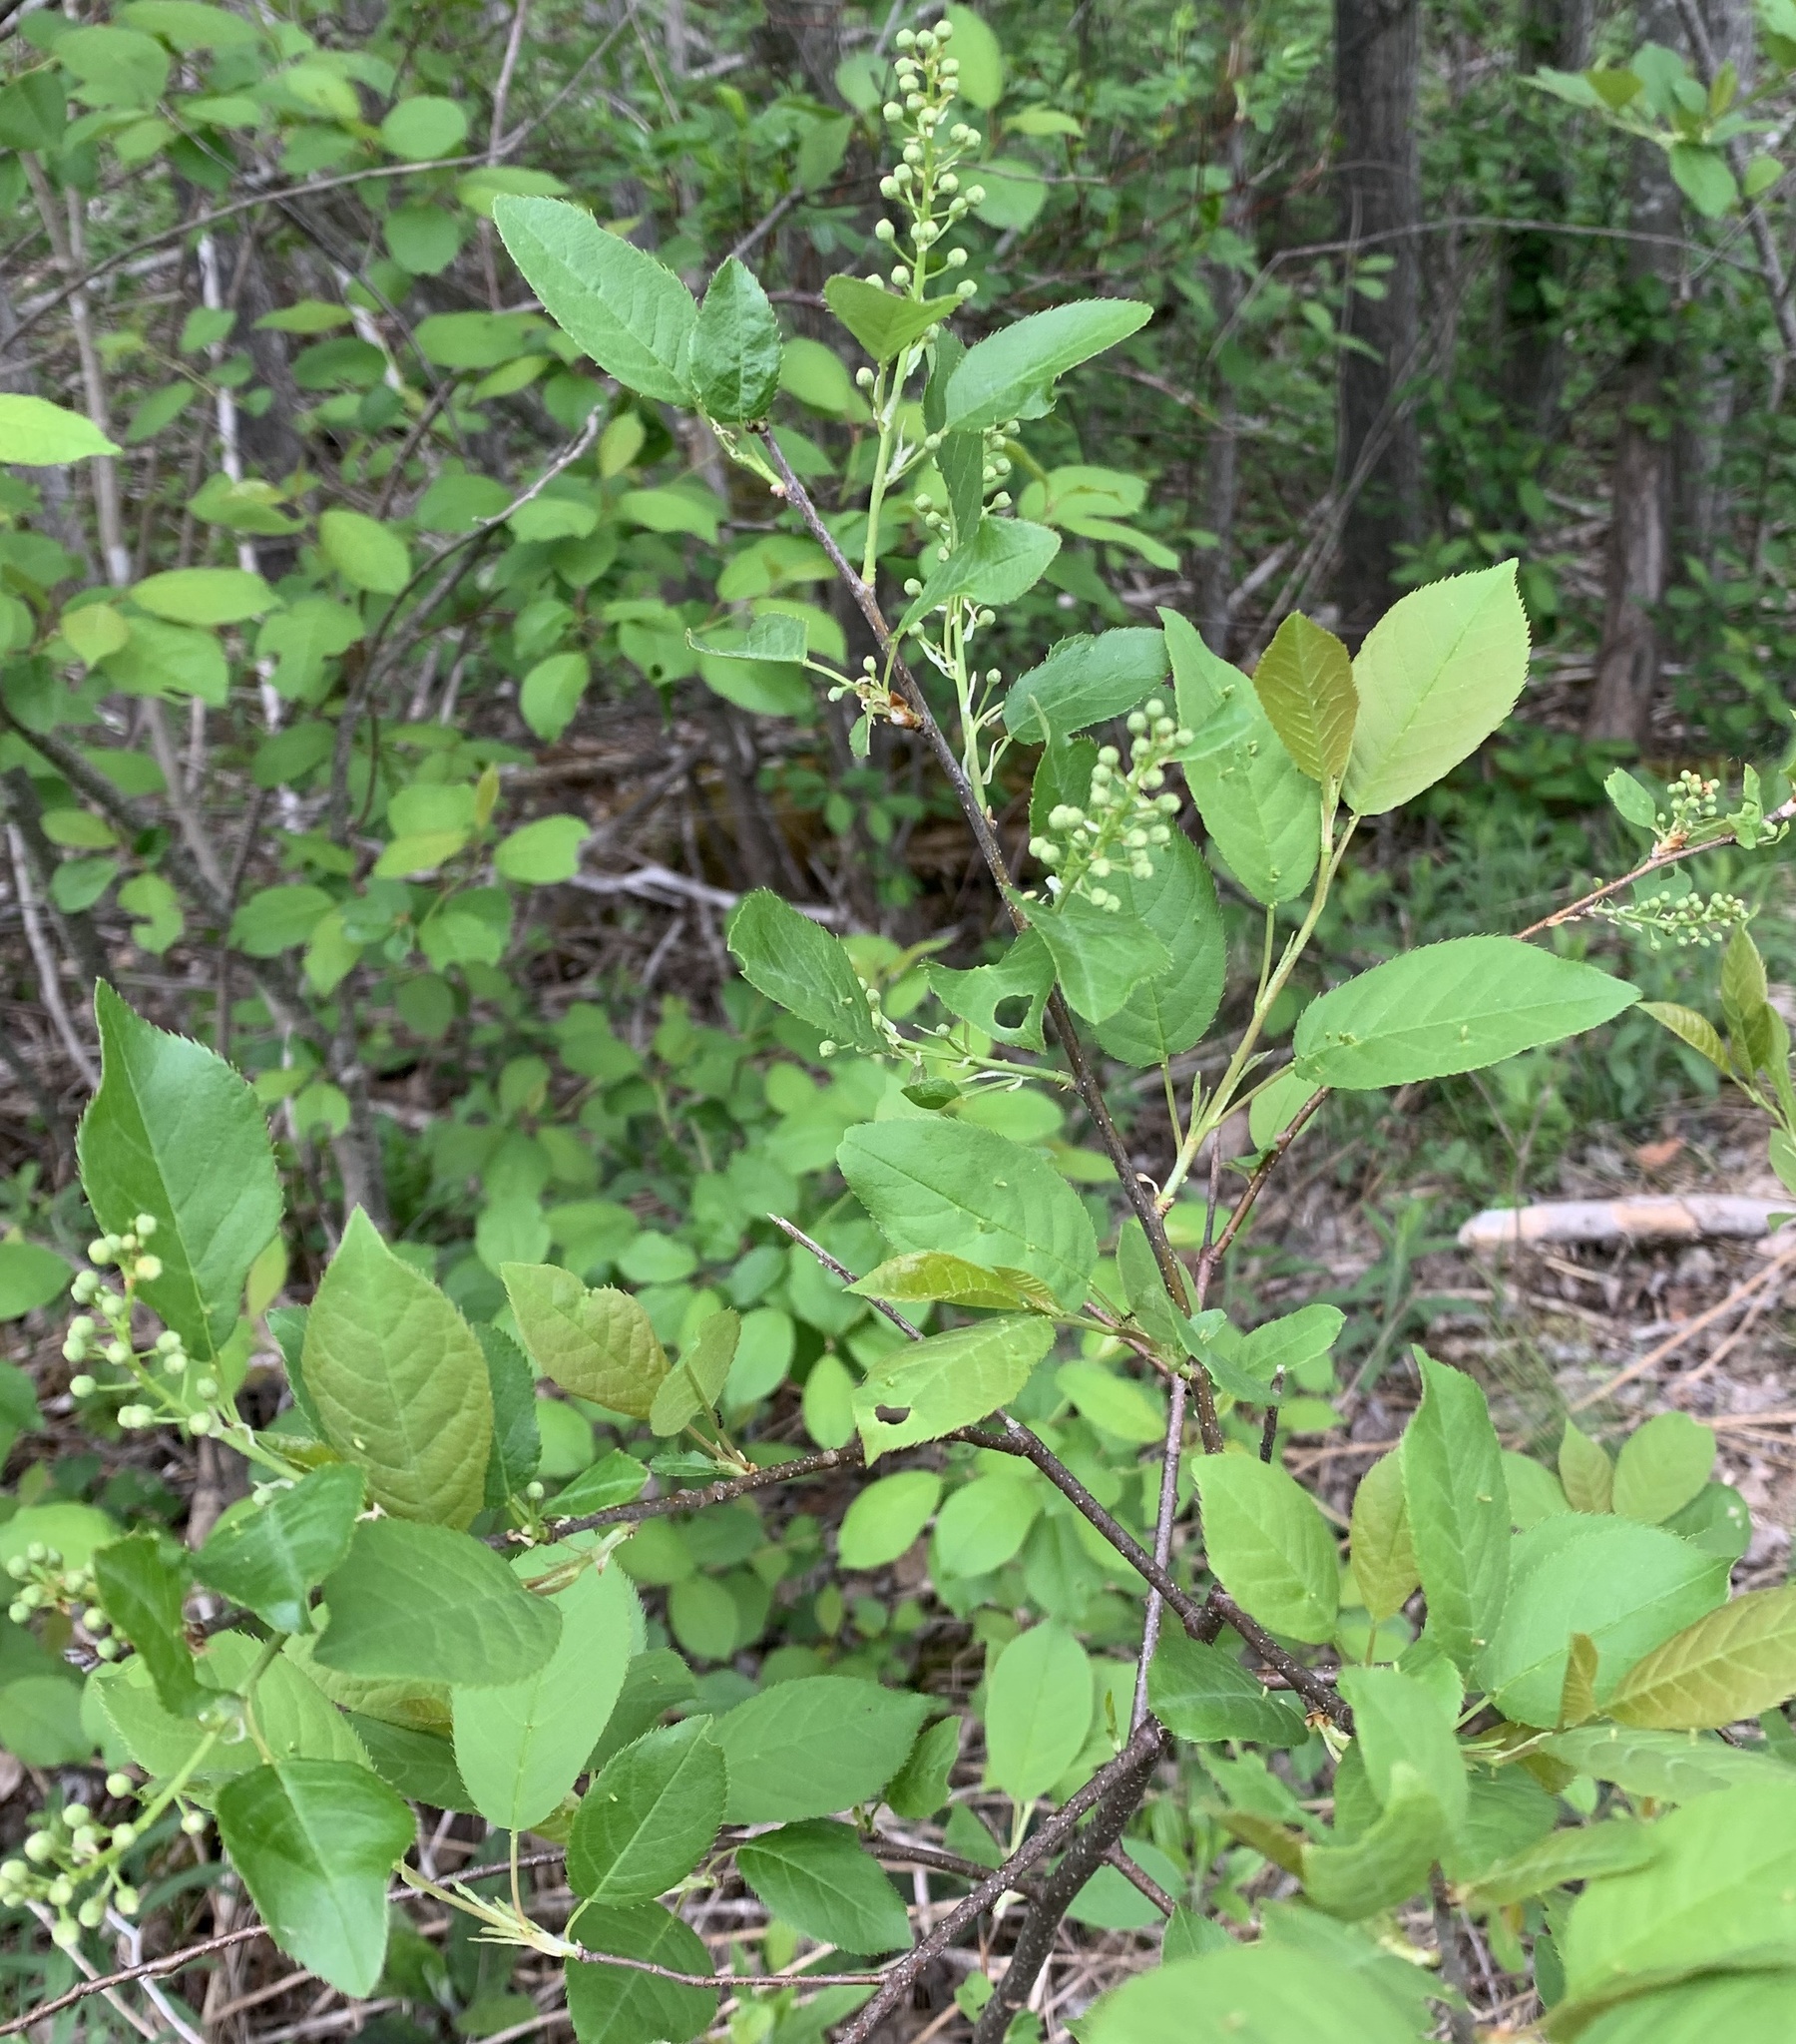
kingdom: Plantae
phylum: Tracheophyta
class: Magnoliopsida
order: Rosales
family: Rosaceae
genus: Prunus
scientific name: Prunus virginiana
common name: Chokecherry
